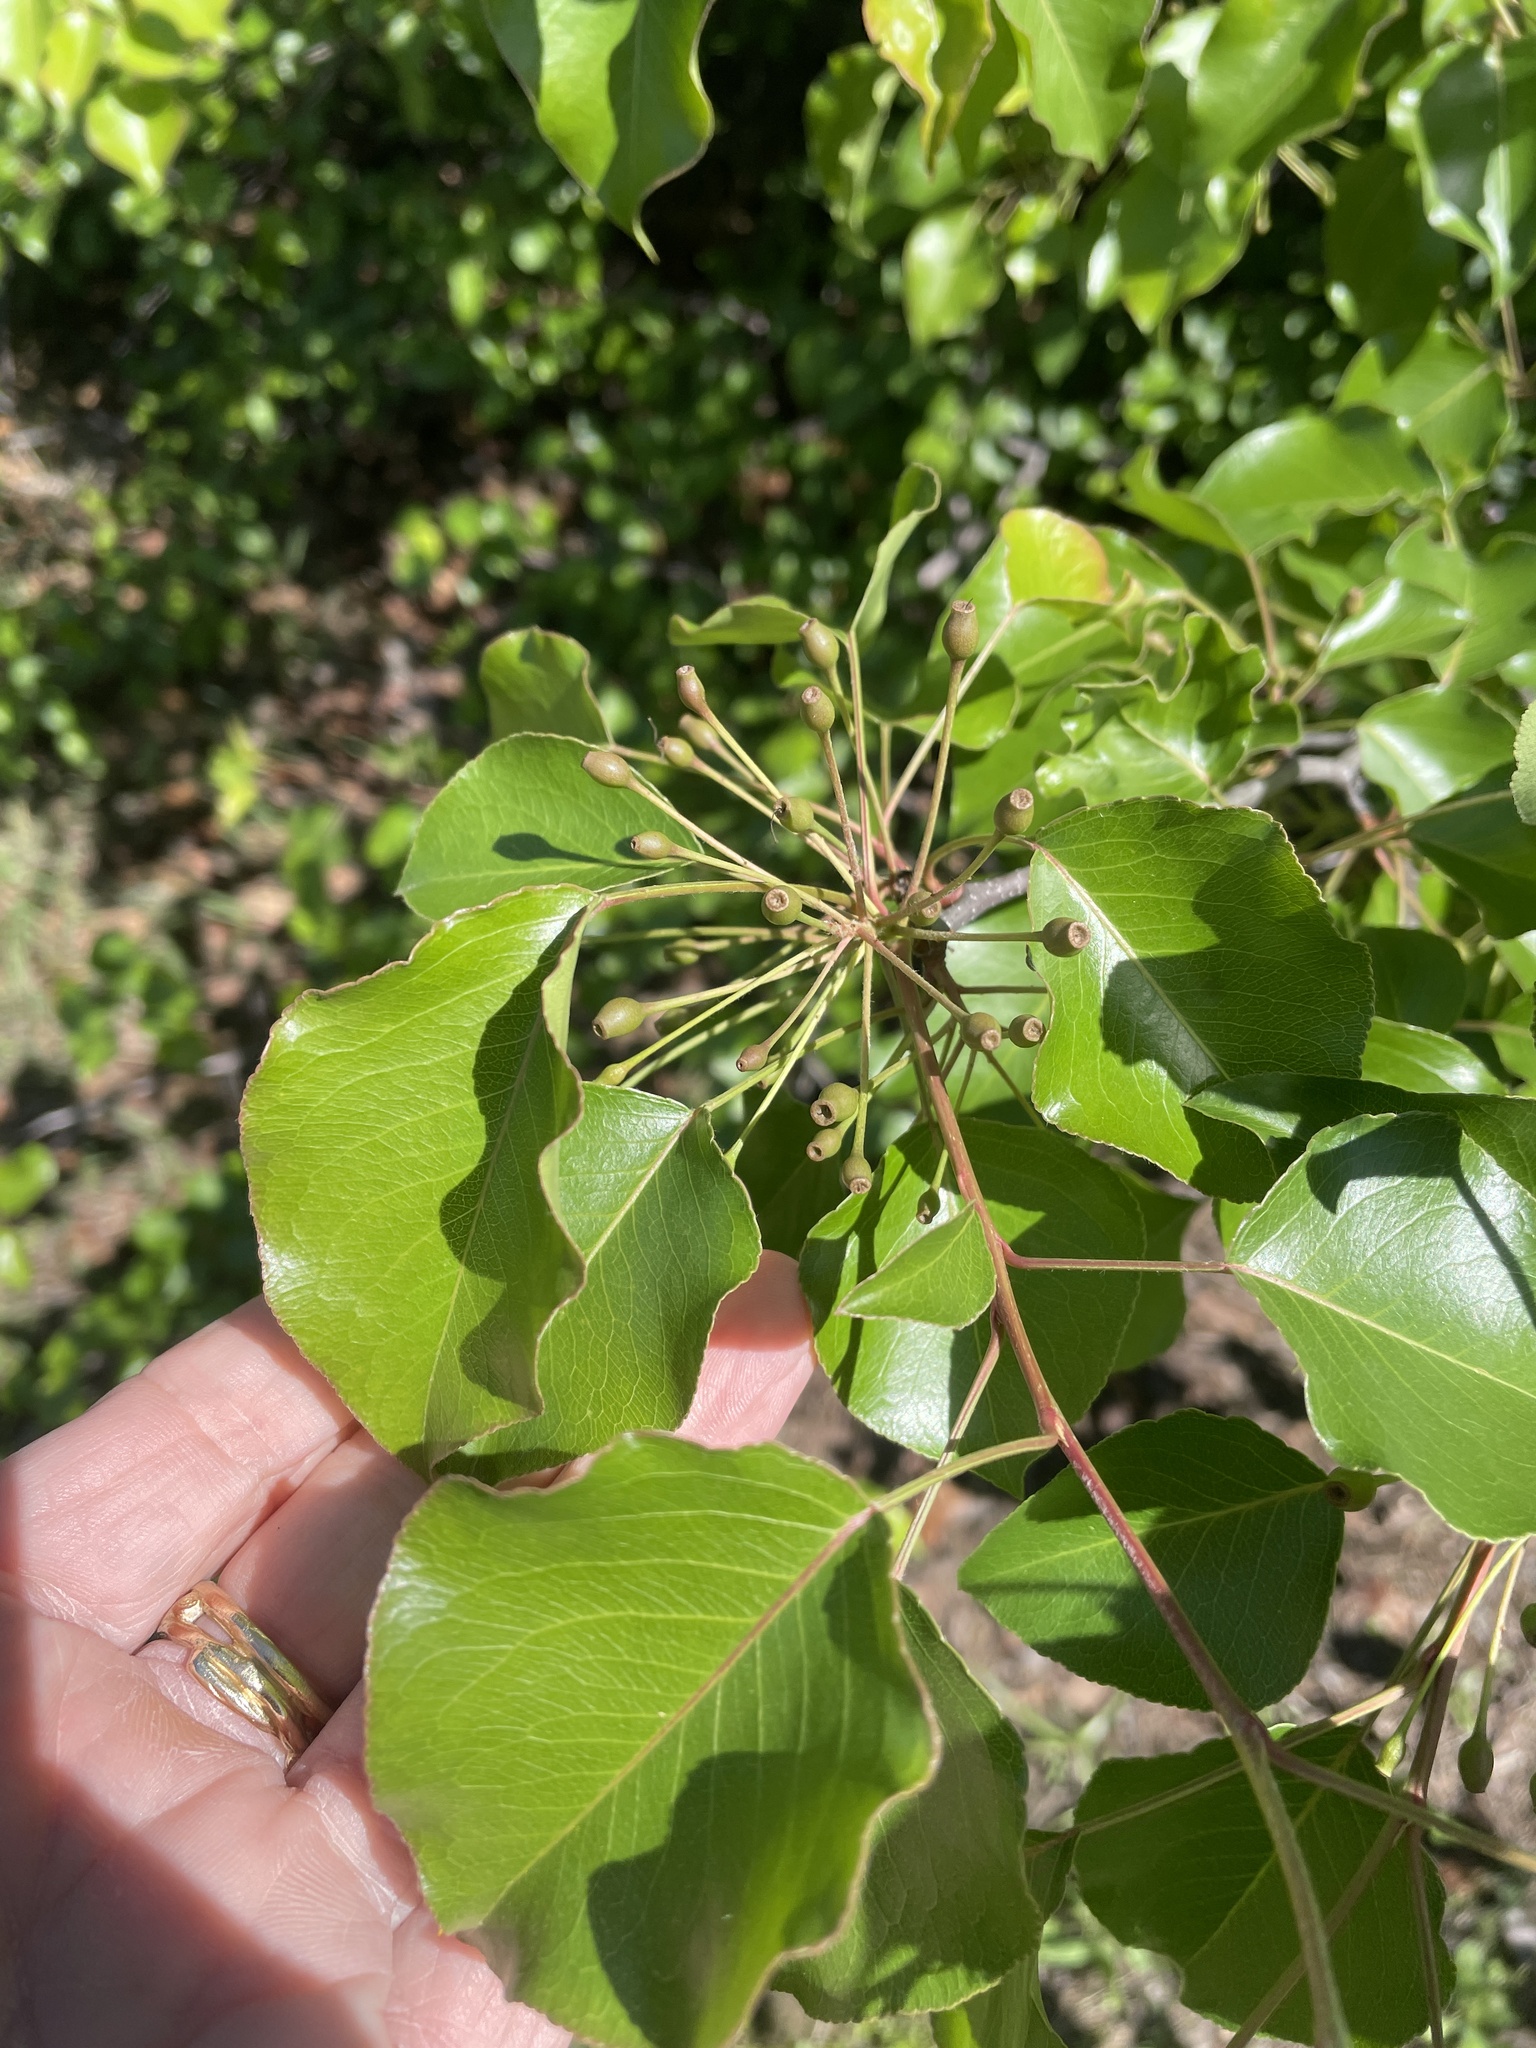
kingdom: Plantae
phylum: Tracheophyta
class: Magnoliopsida
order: Rosales
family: Rosaceae
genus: Pyrus
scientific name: Pyrus calleryana
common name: Callery pear
